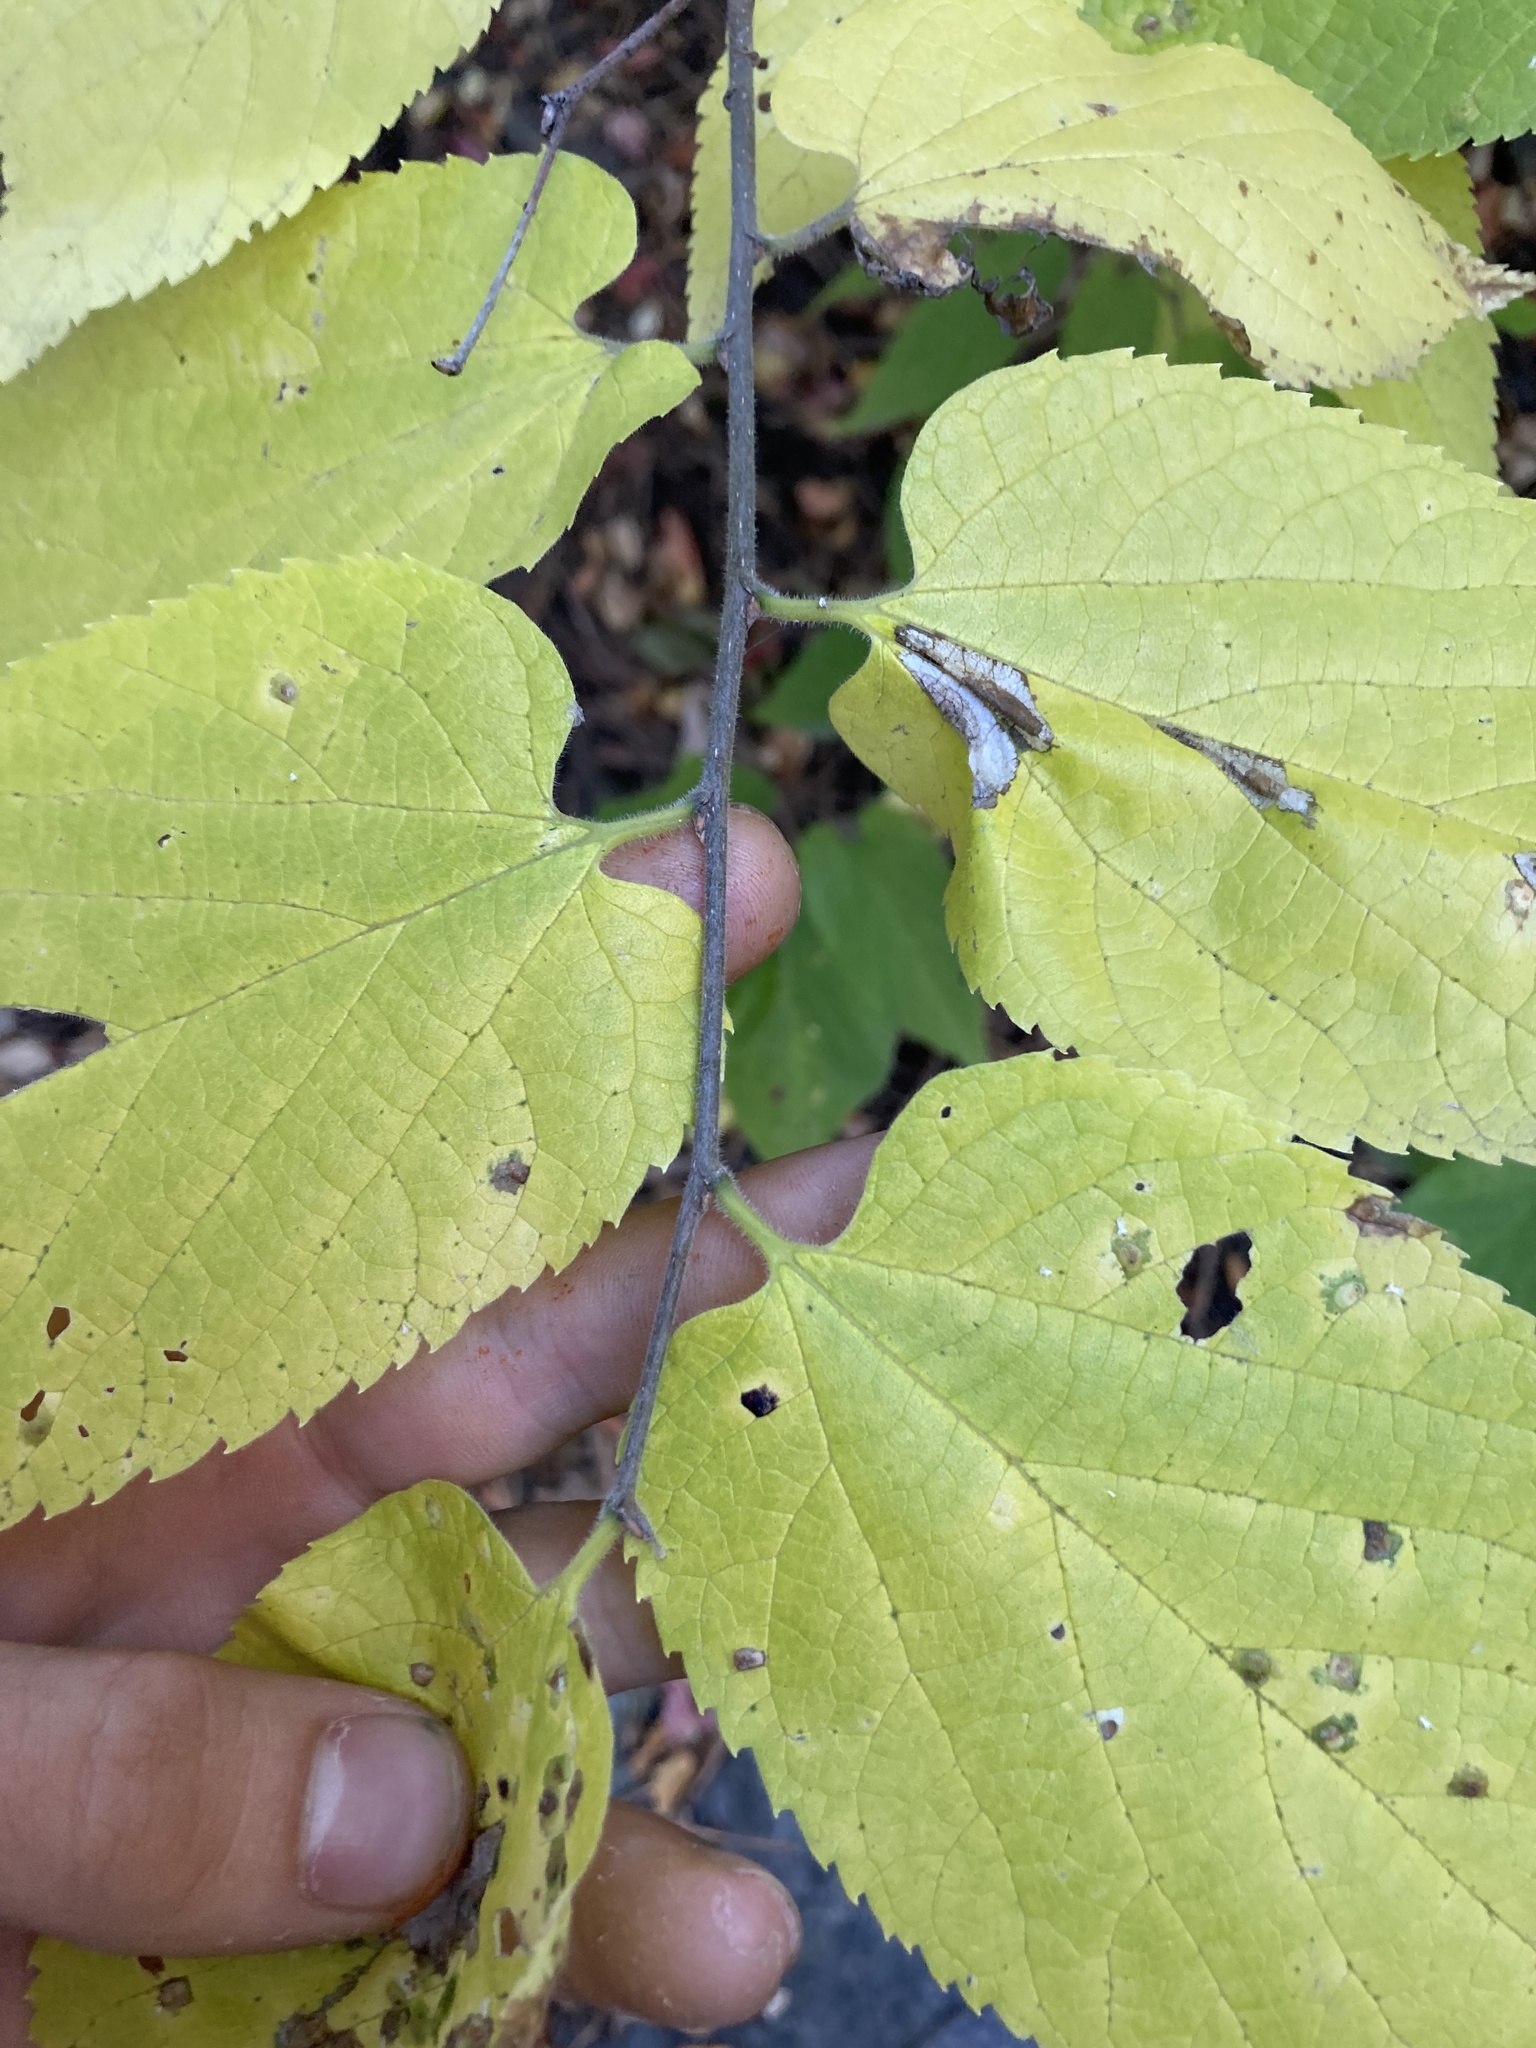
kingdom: Plantae
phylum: Tracheophyta
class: Magnoliopsida
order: Rosales
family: Cannabaceae
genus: Celtis
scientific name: Celtis occidentalis
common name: Common hackberry
